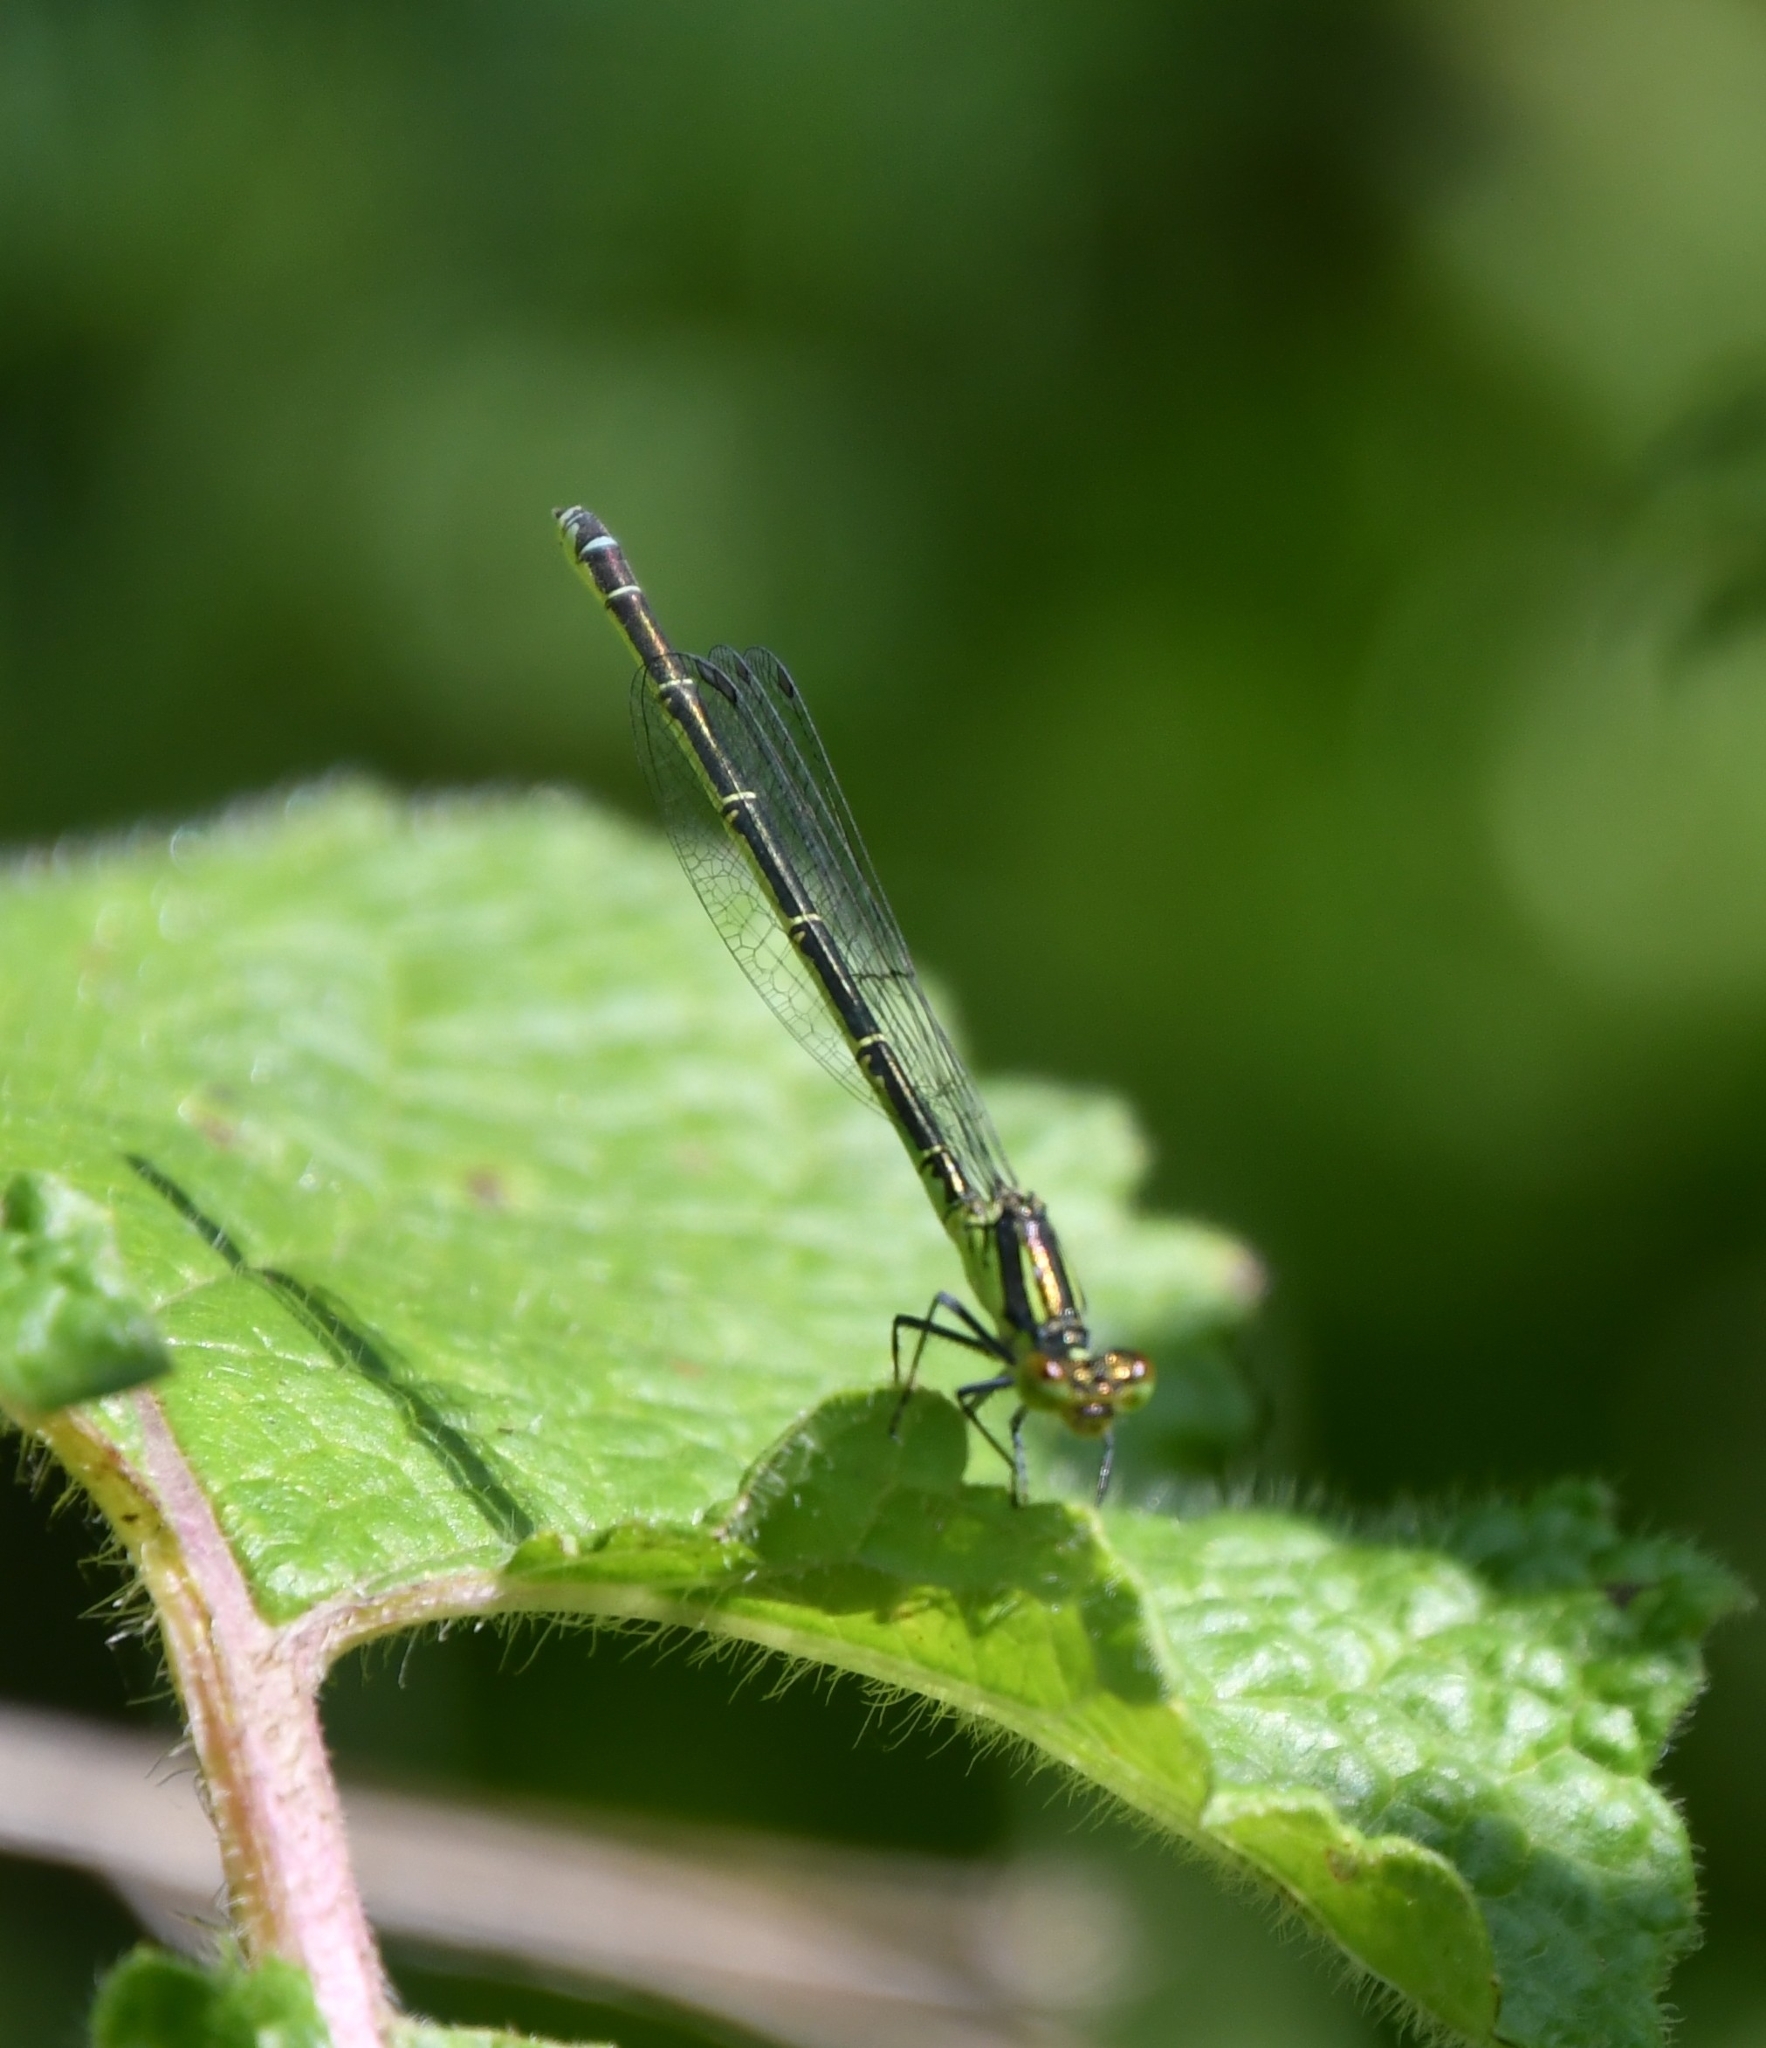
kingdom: Animalia
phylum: Arthropoda
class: Insecta
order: Odonata
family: Coenagrionidae
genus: Erythromma
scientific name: Erythromma viridulum
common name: Small red-eyed damselfly
